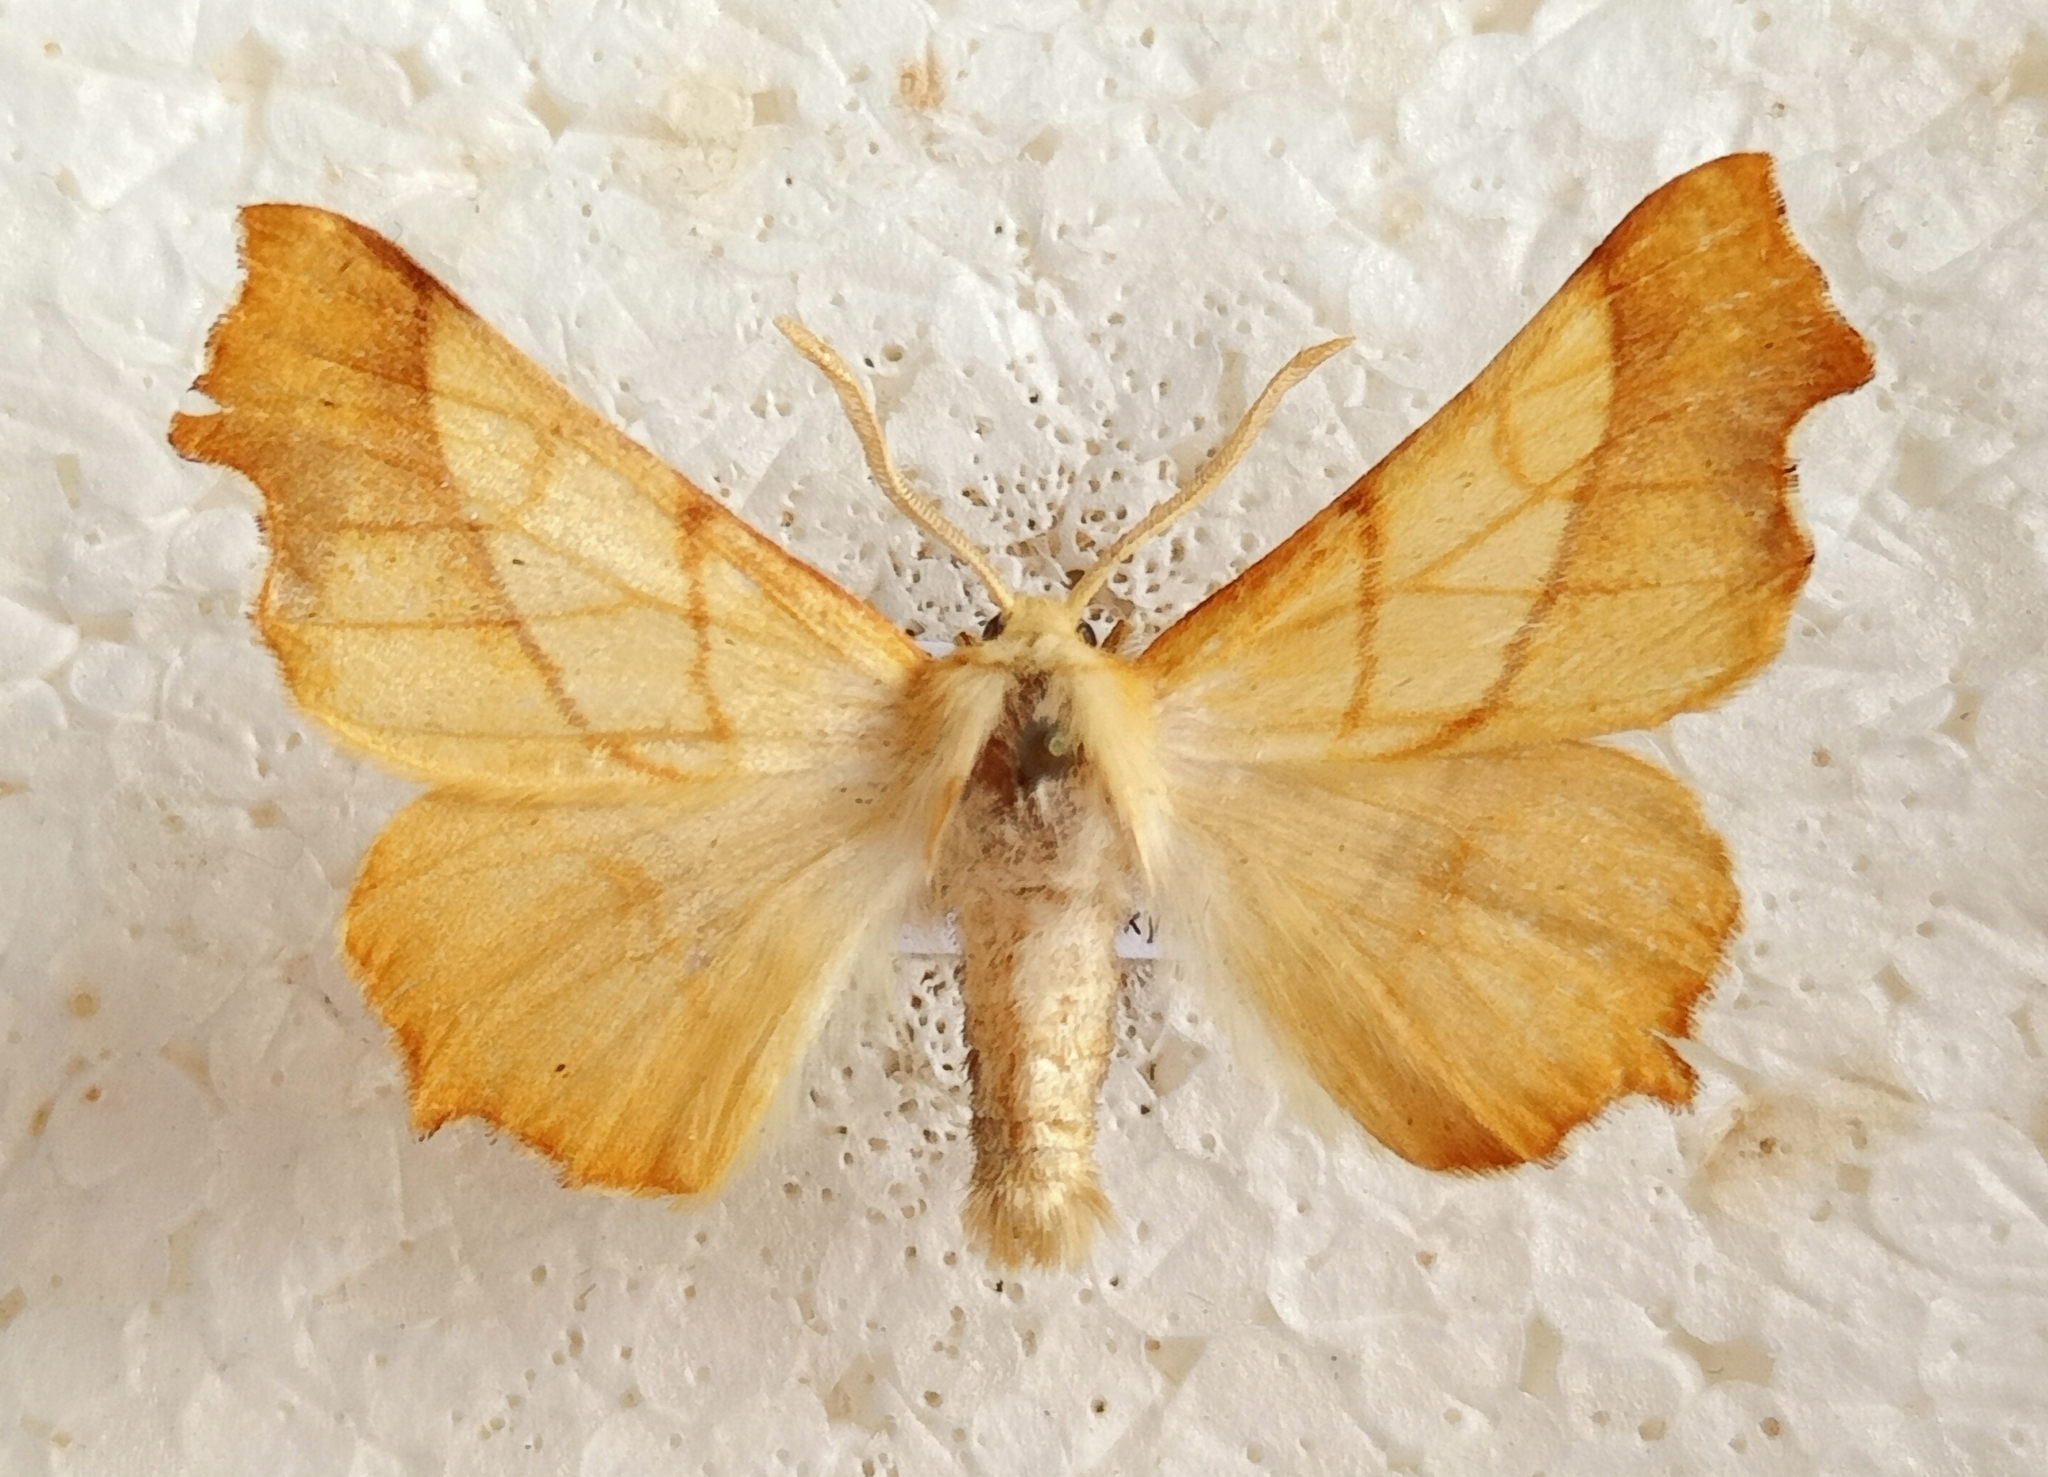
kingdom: Animalia
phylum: Arthropoda
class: Insecta
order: Lepidoptera
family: Geometridae
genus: Ennomos
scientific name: Ennomos fuscantaria
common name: Dusky thorn
